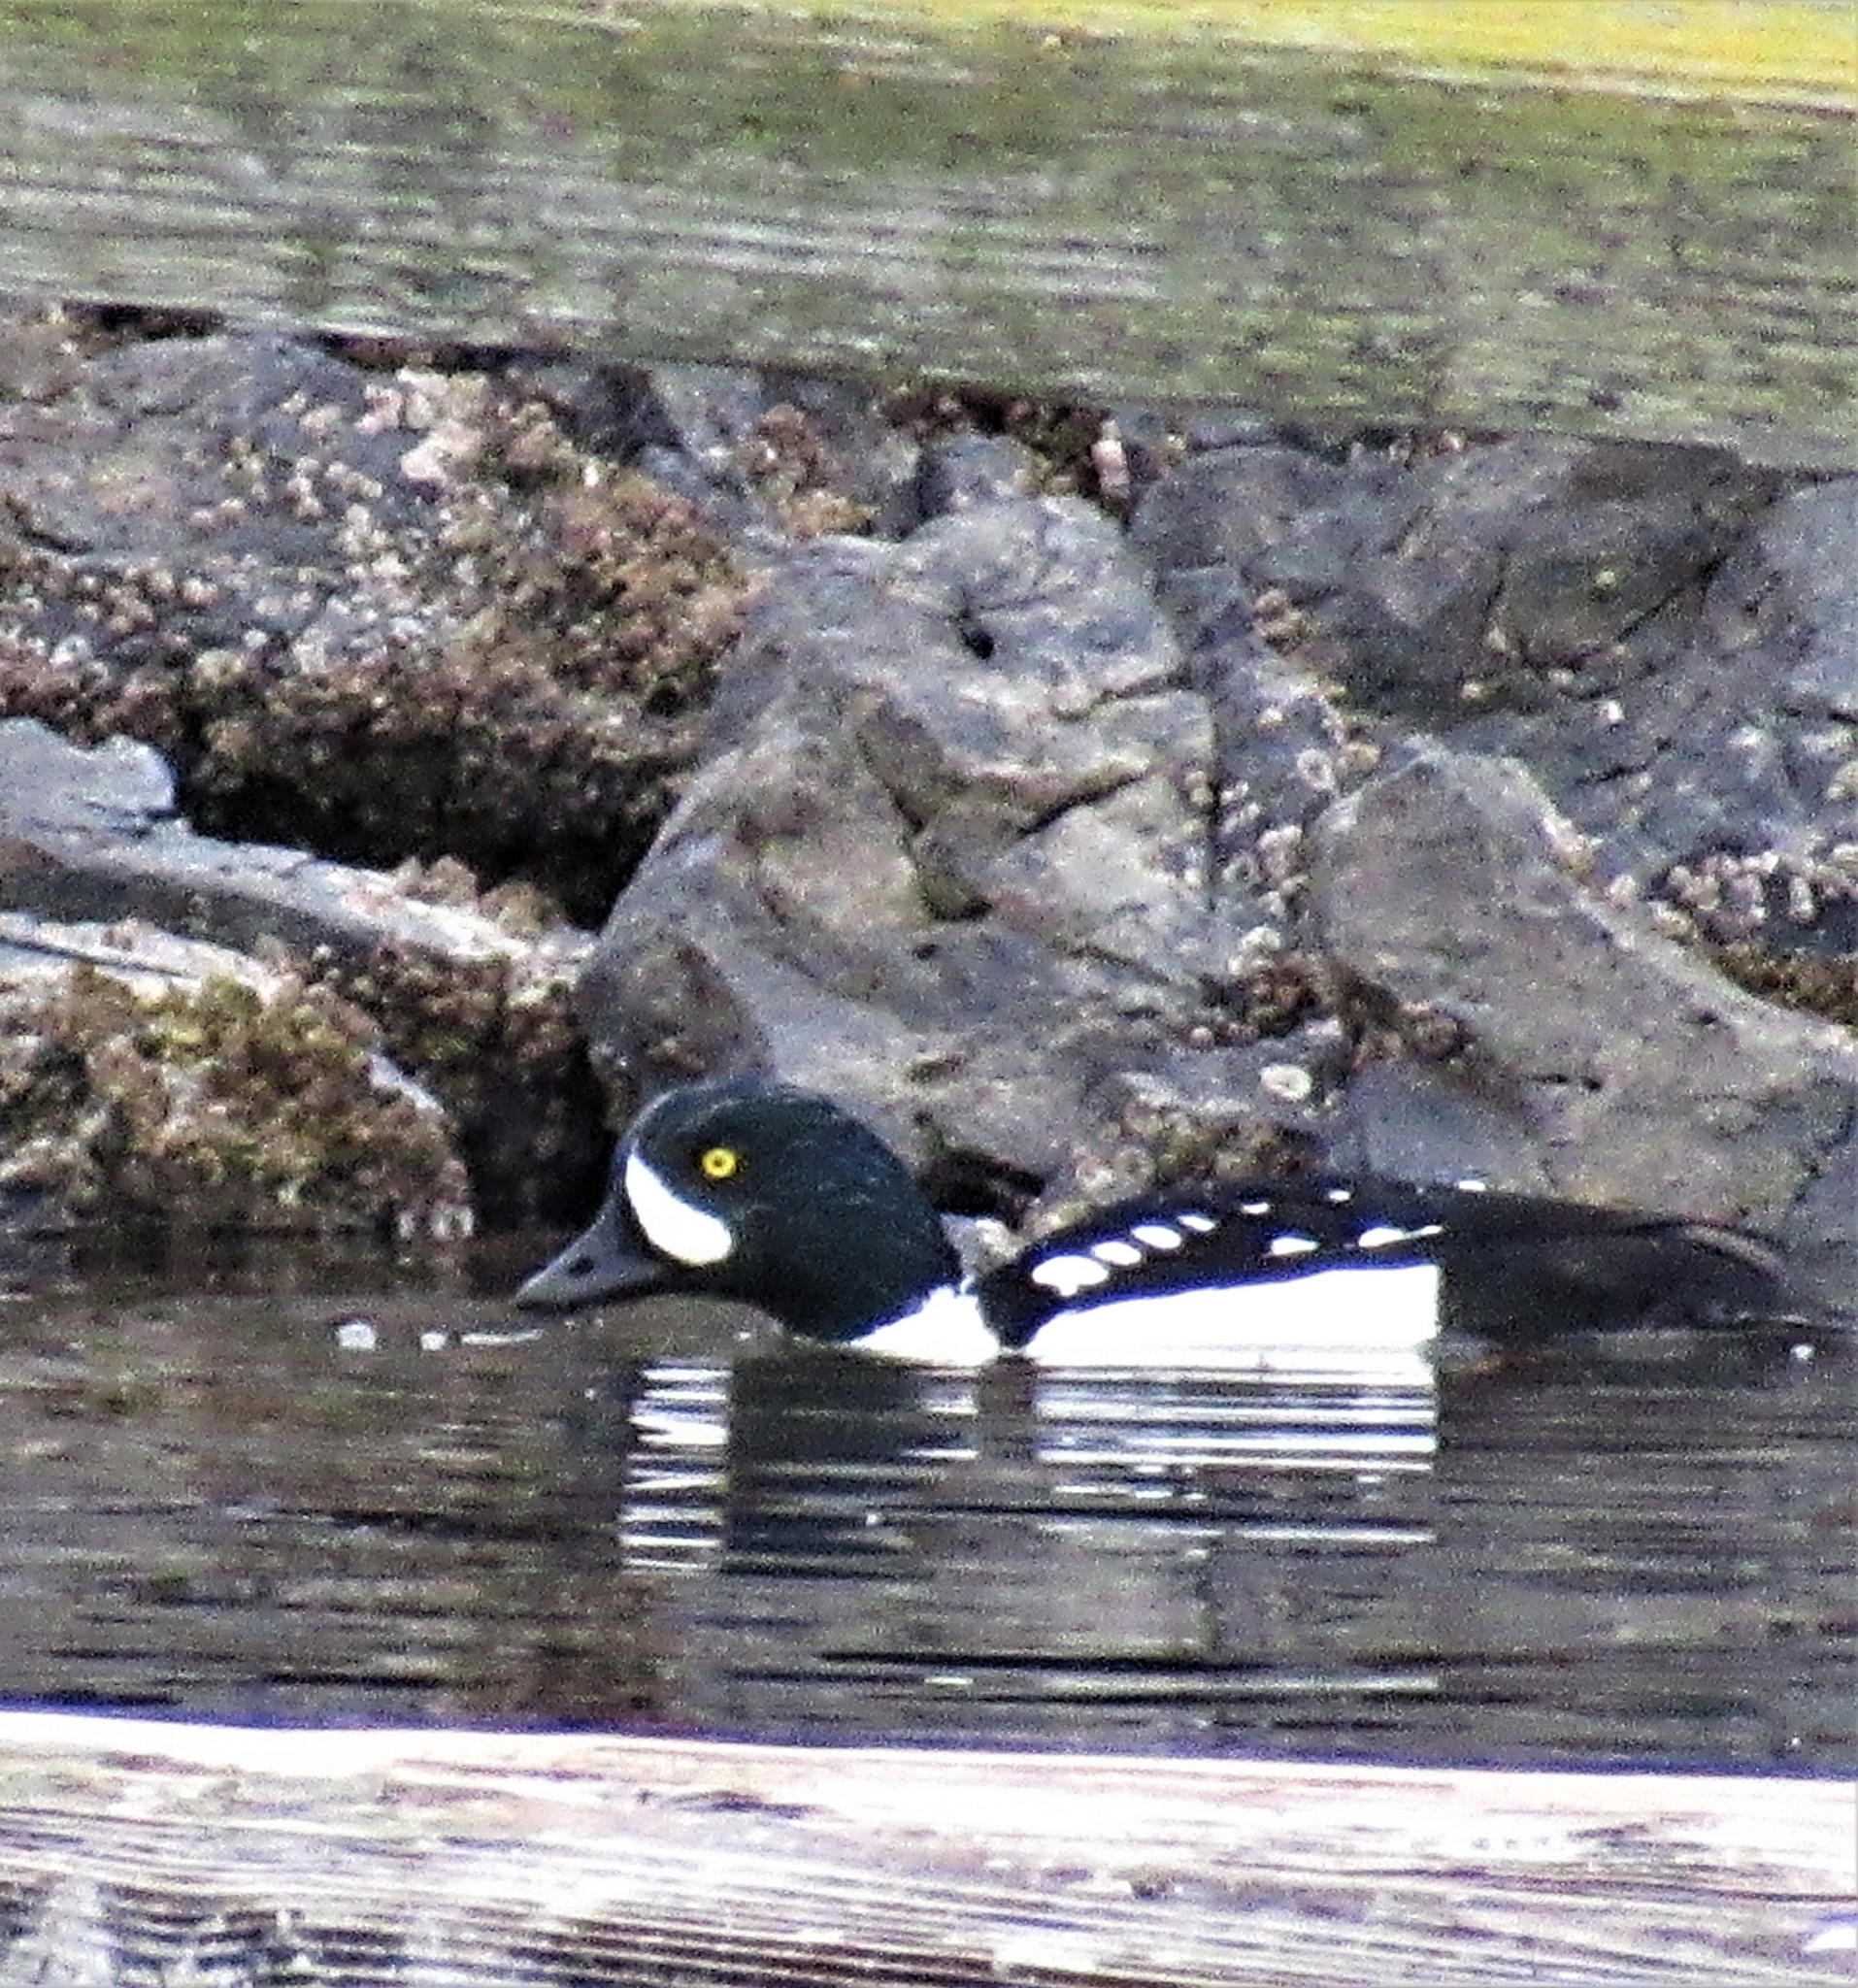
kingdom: Animalia
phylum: Chordata
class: Aves
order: Anseriformes
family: Anatidae
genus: Bucephala
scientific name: Bucephala islandica
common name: Barrow's goldeneye
